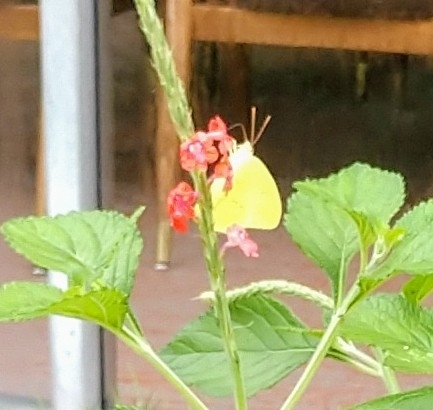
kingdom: Animalia
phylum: Arthropoda
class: Insecta
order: Lepidoptera
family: Pieridae
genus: Phoebis
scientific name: Phoebis sennae
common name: Cloudless sulphur
